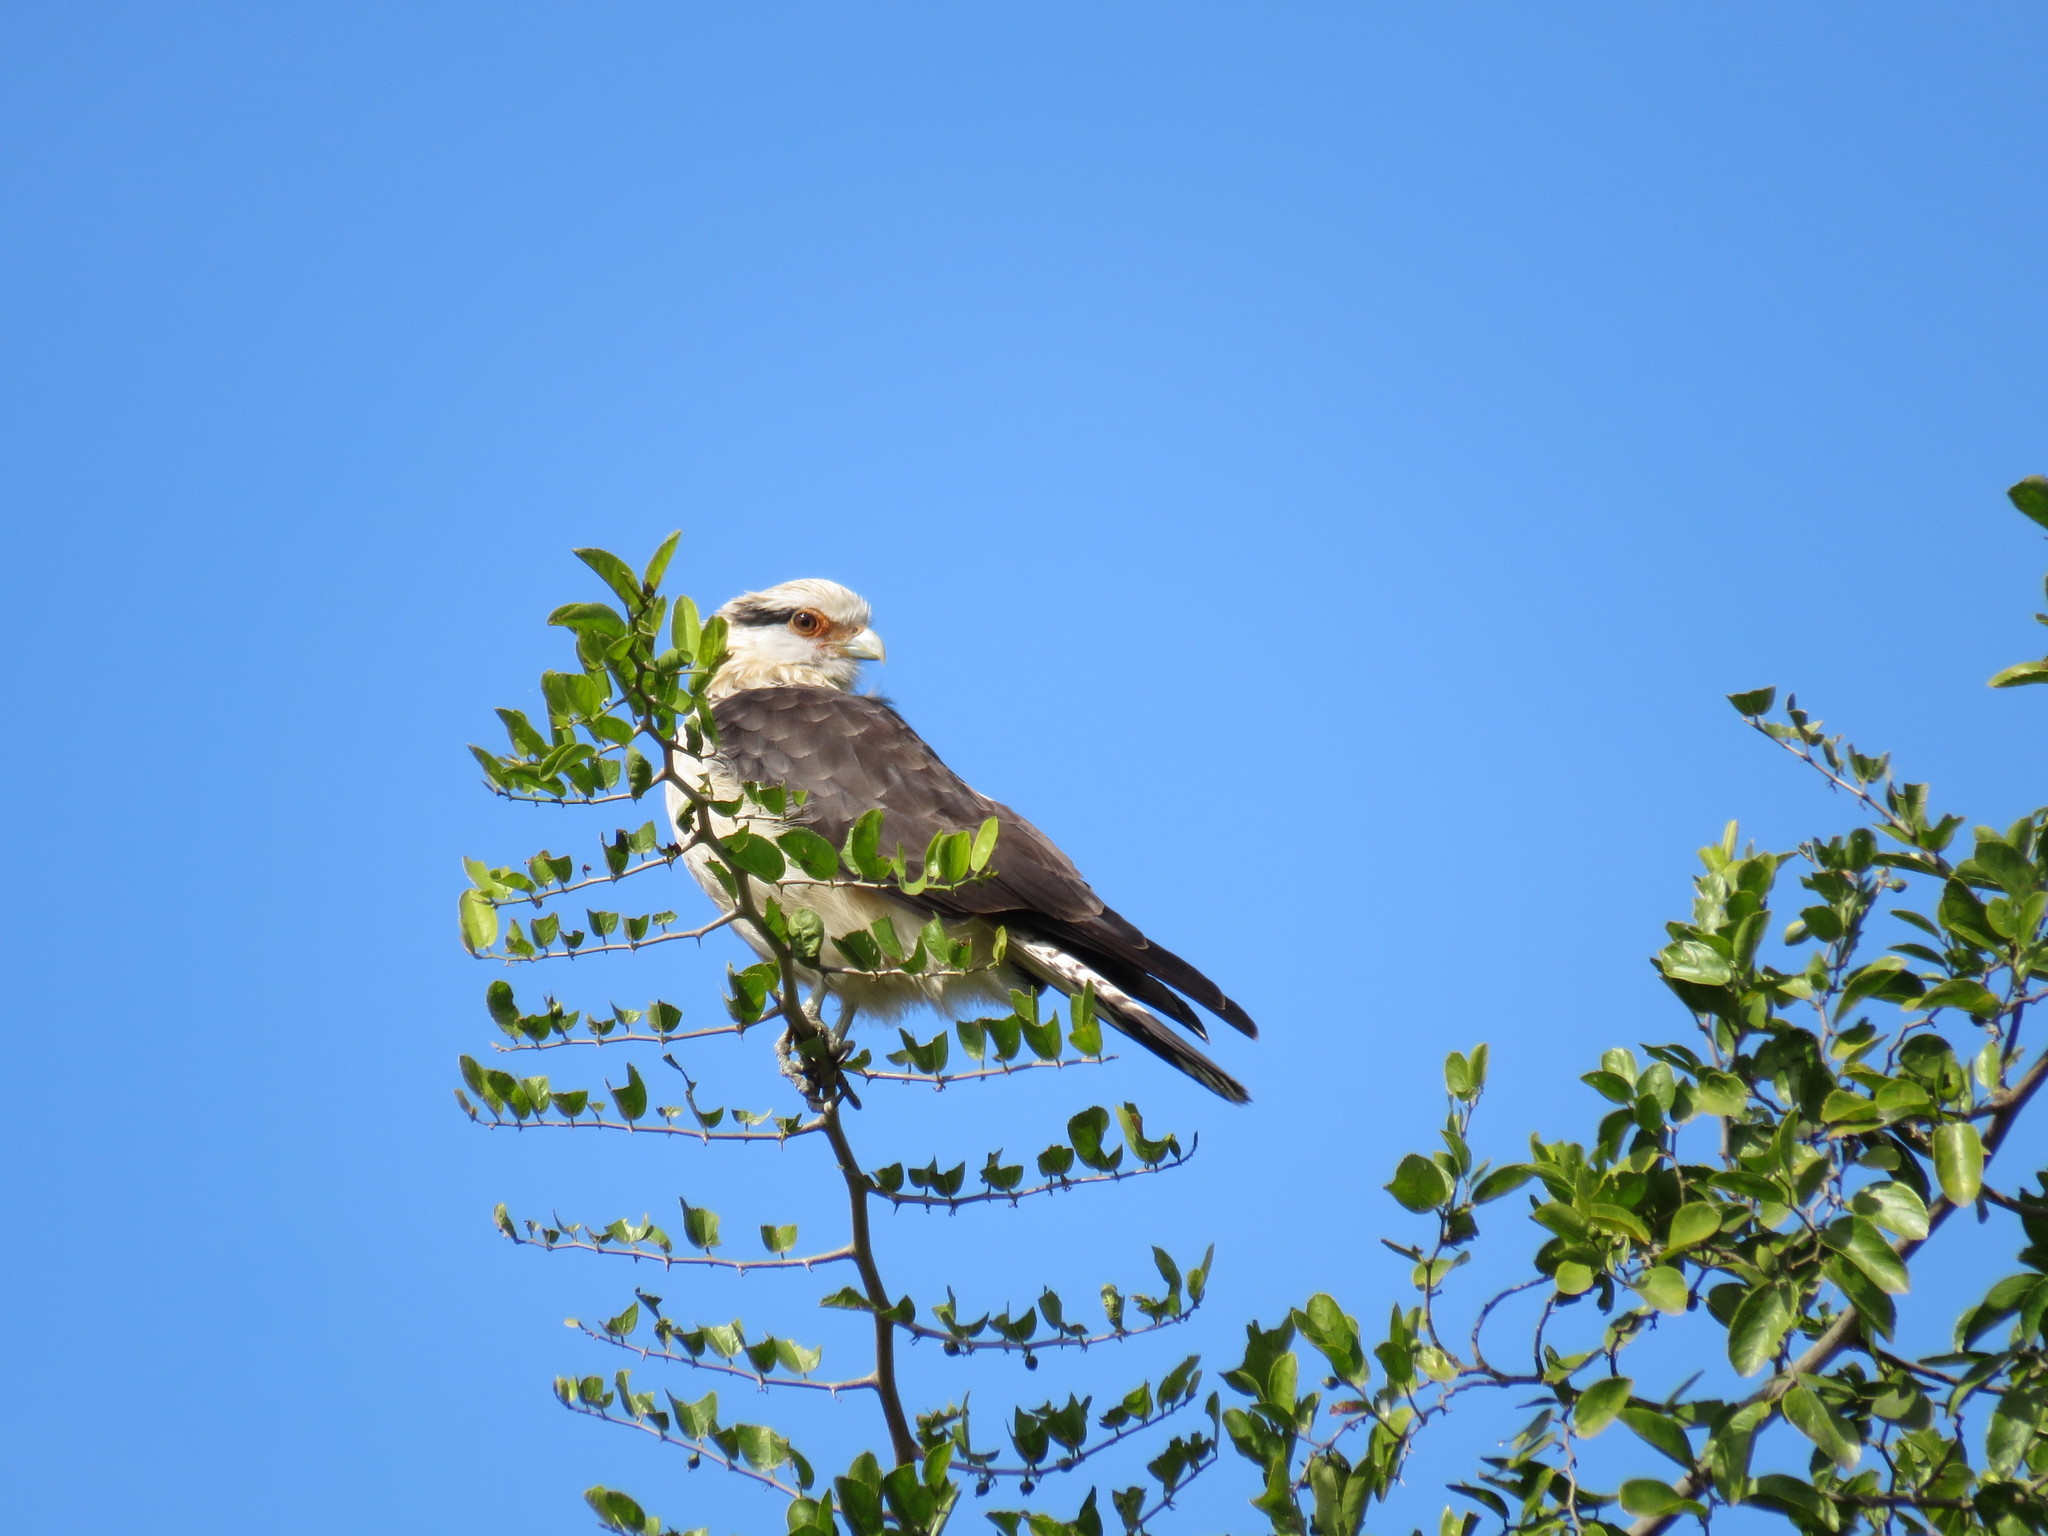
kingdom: Animalia
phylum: Chordata
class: Aves
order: Falconiformes
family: Falconidae
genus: Daptrius
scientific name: Daptrius
